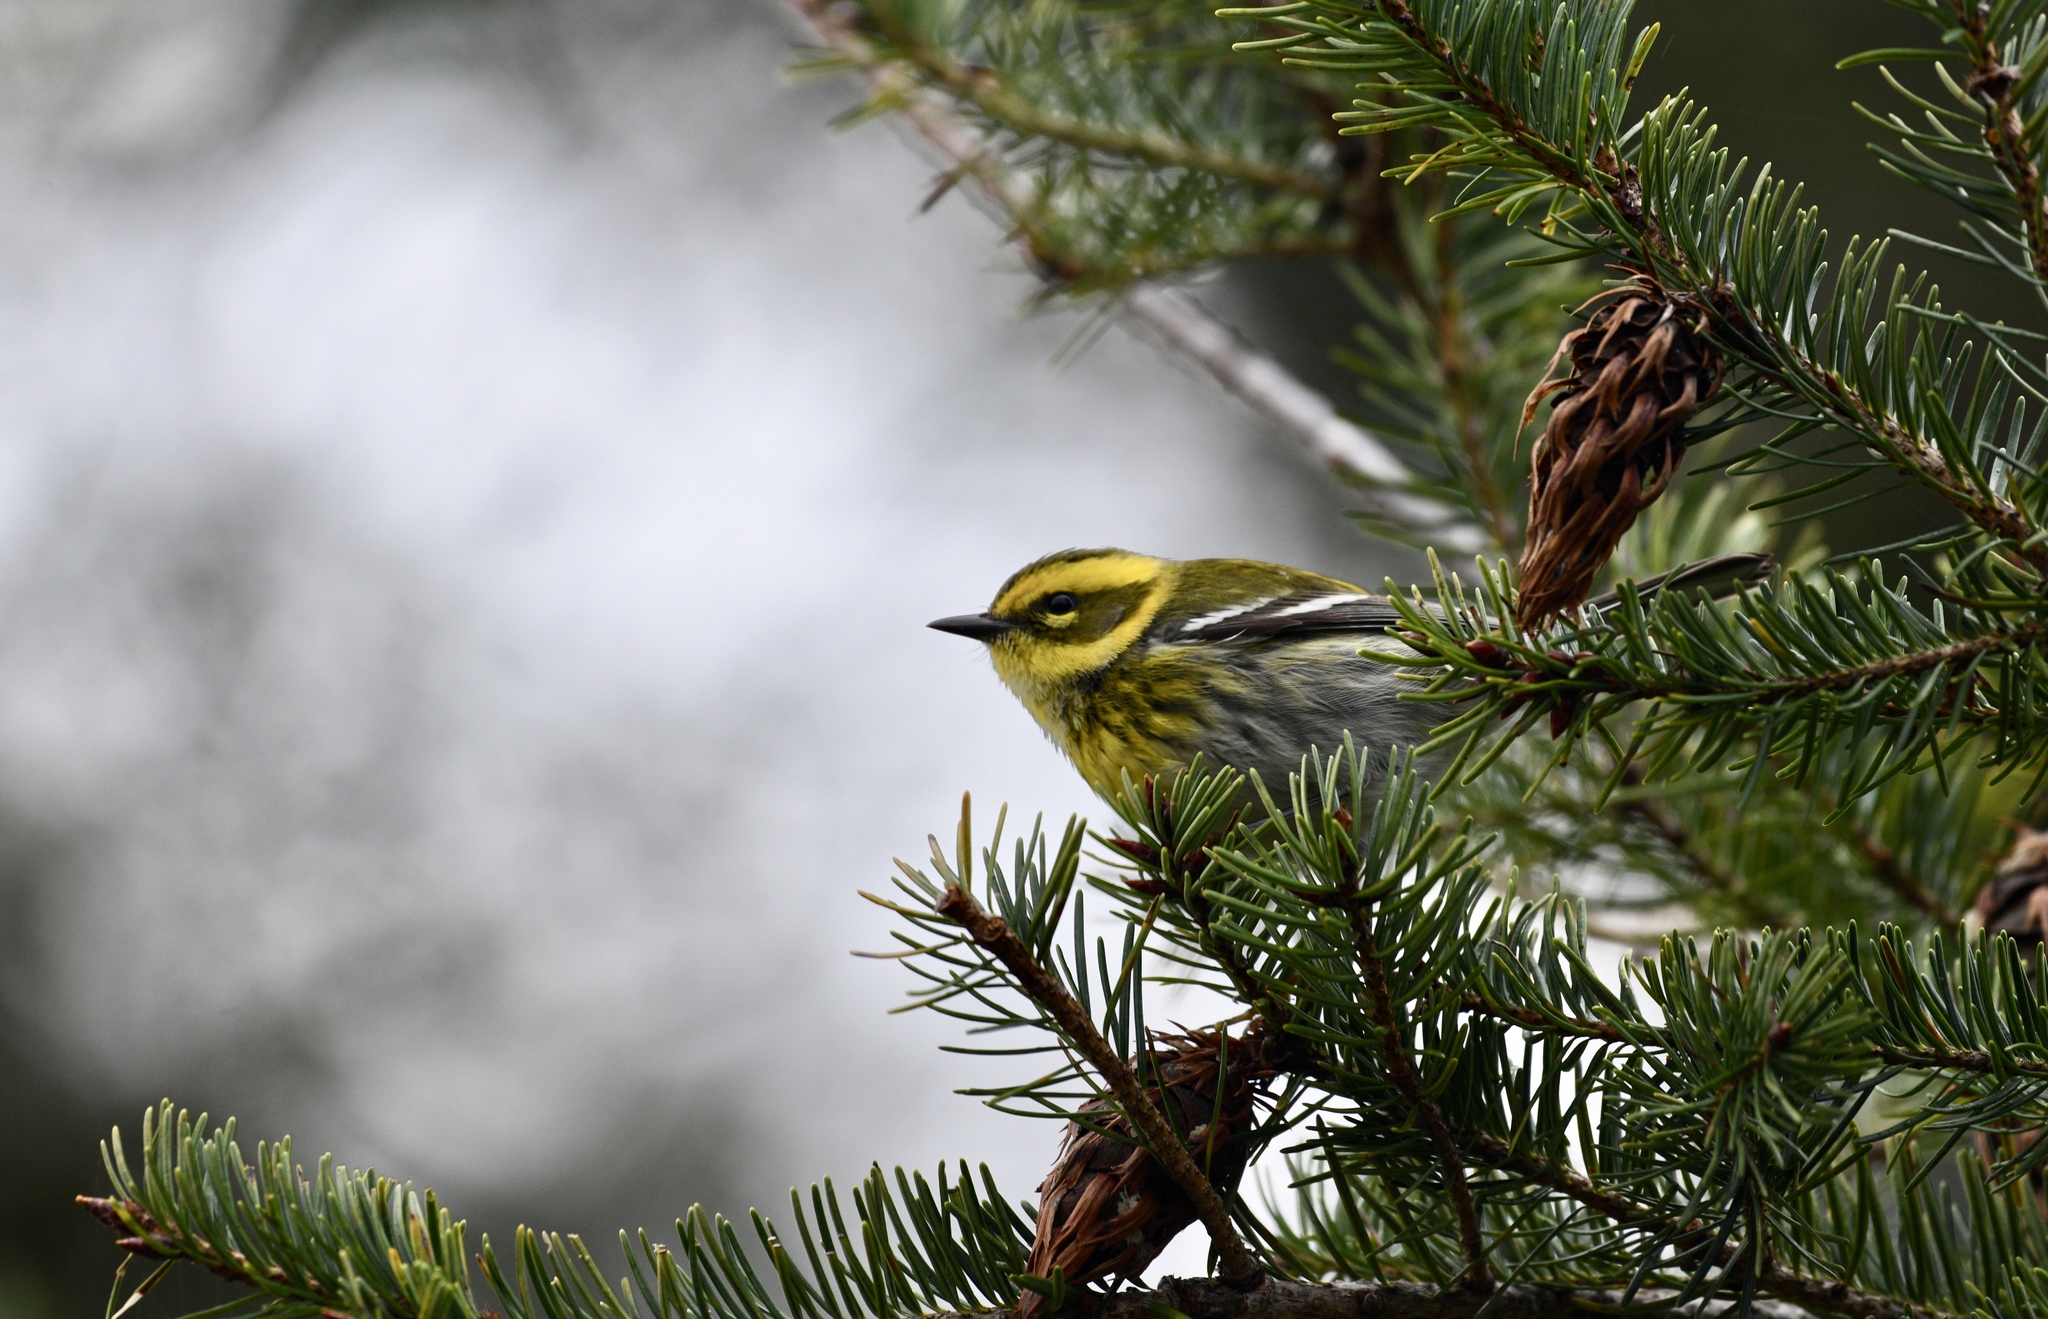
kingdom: Animalia
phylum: Chordata
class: Aves
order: Passeriformes
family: Parulidae
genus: Setophaga
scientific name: Setophaga townsendi
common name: Townsend's warbler
